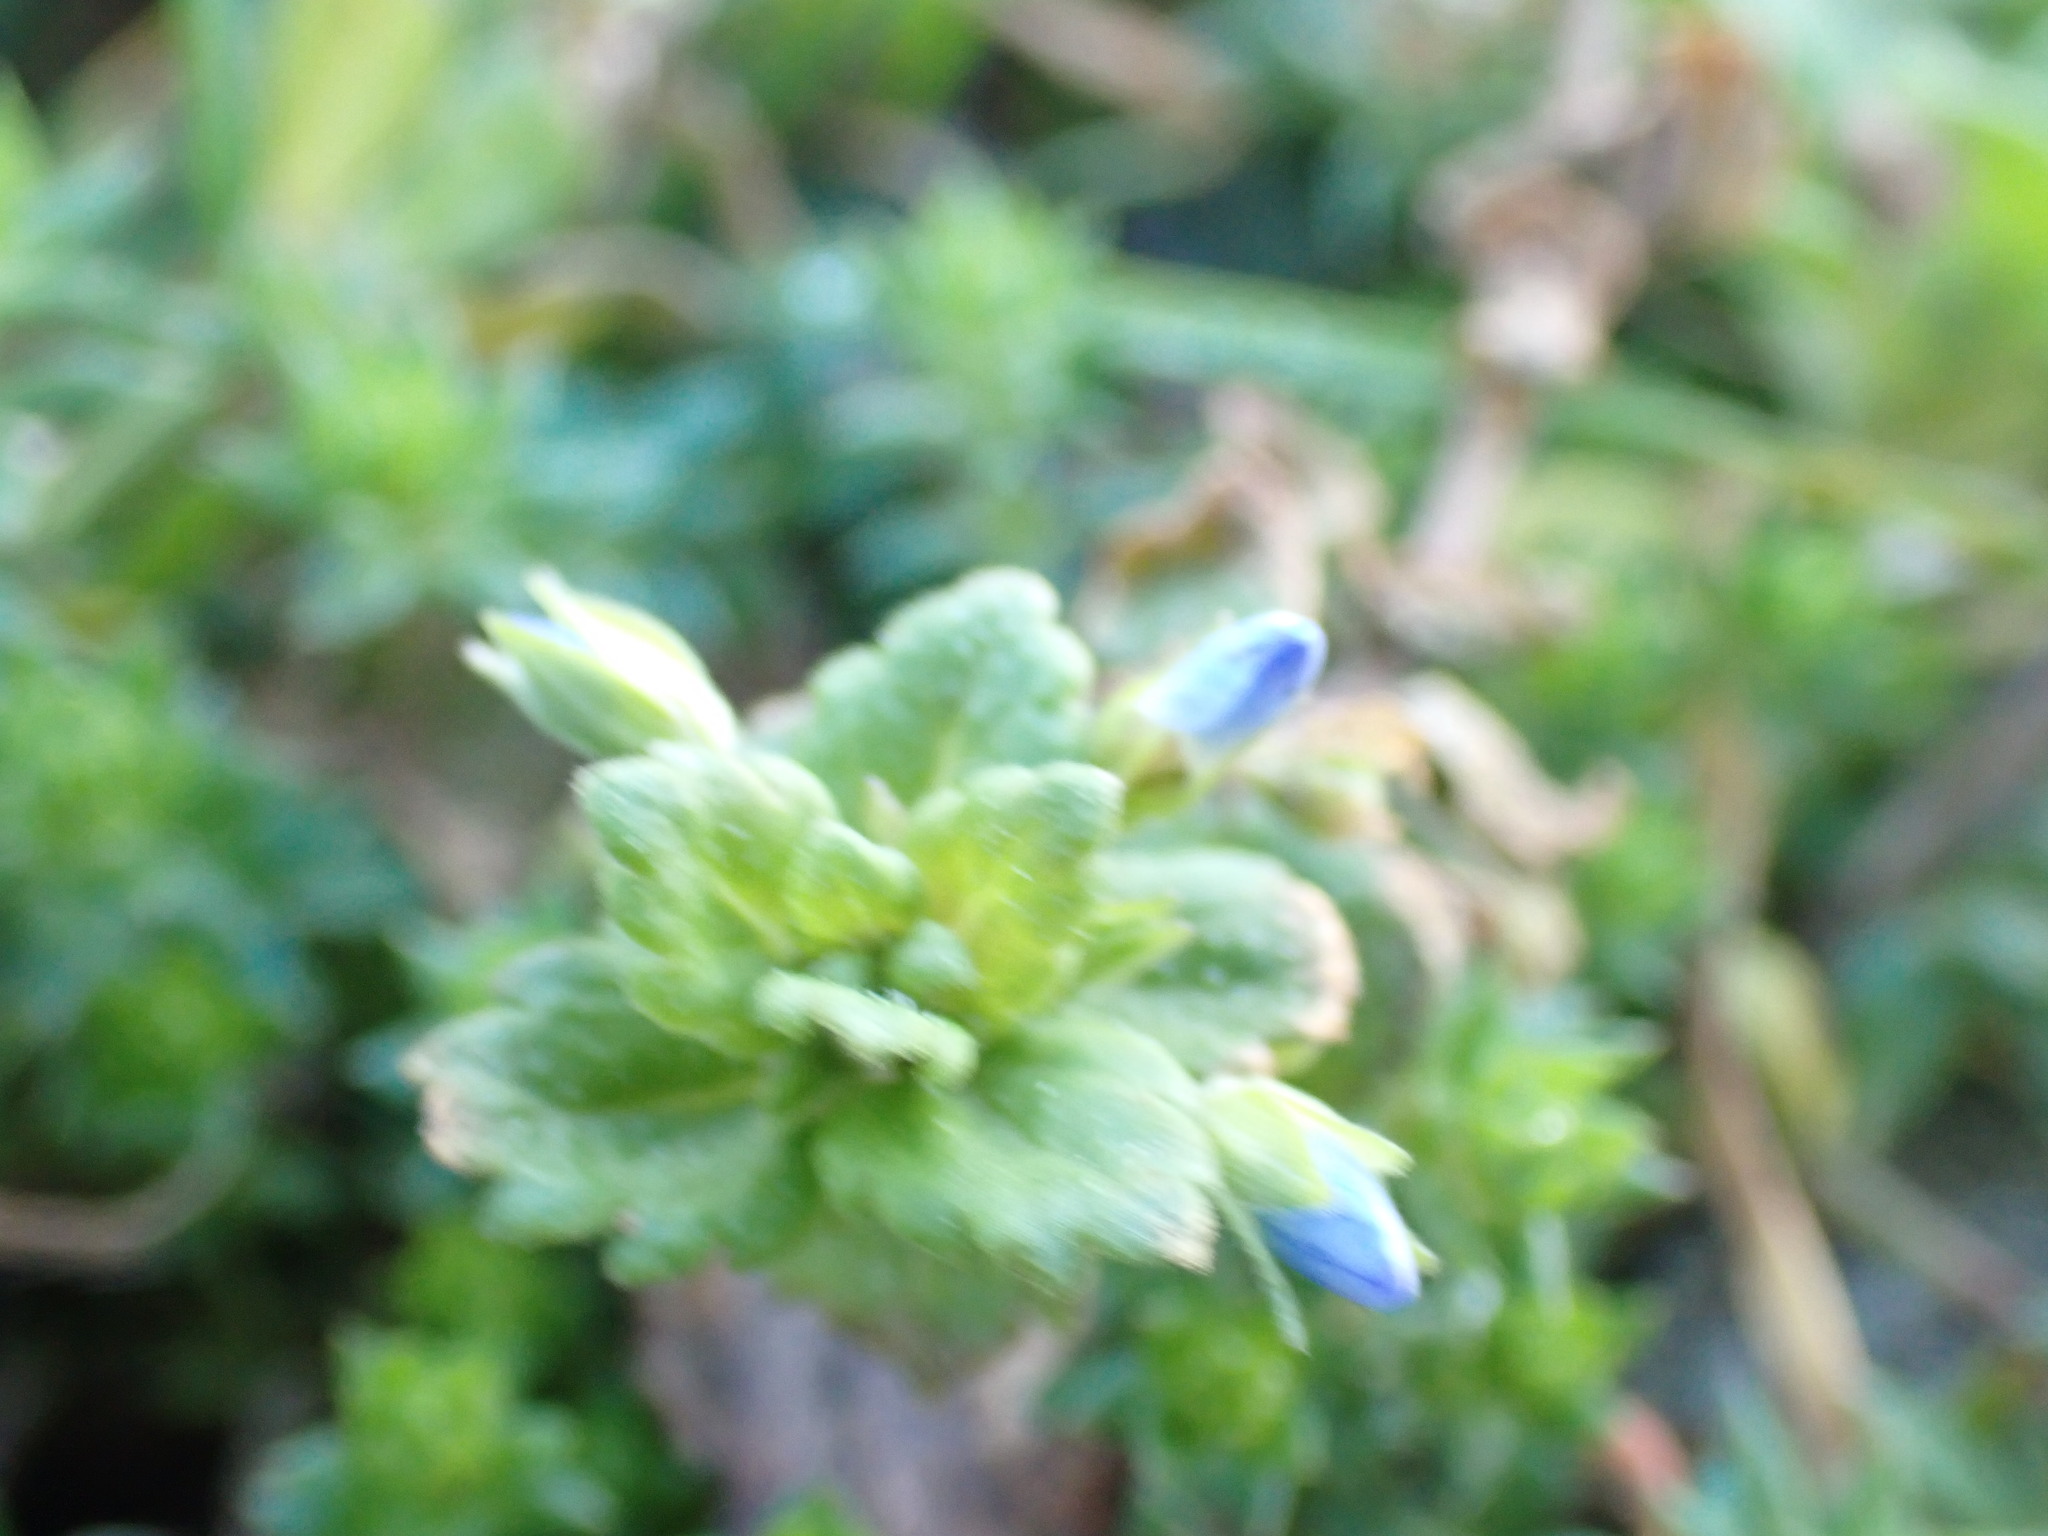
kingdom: Plantae
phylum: Tracheophyta
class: Magnoliopsida
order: Lamiales
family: Plantaginaceae
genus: Veronica
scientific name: Veronica persica
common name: Common field-speedwell
